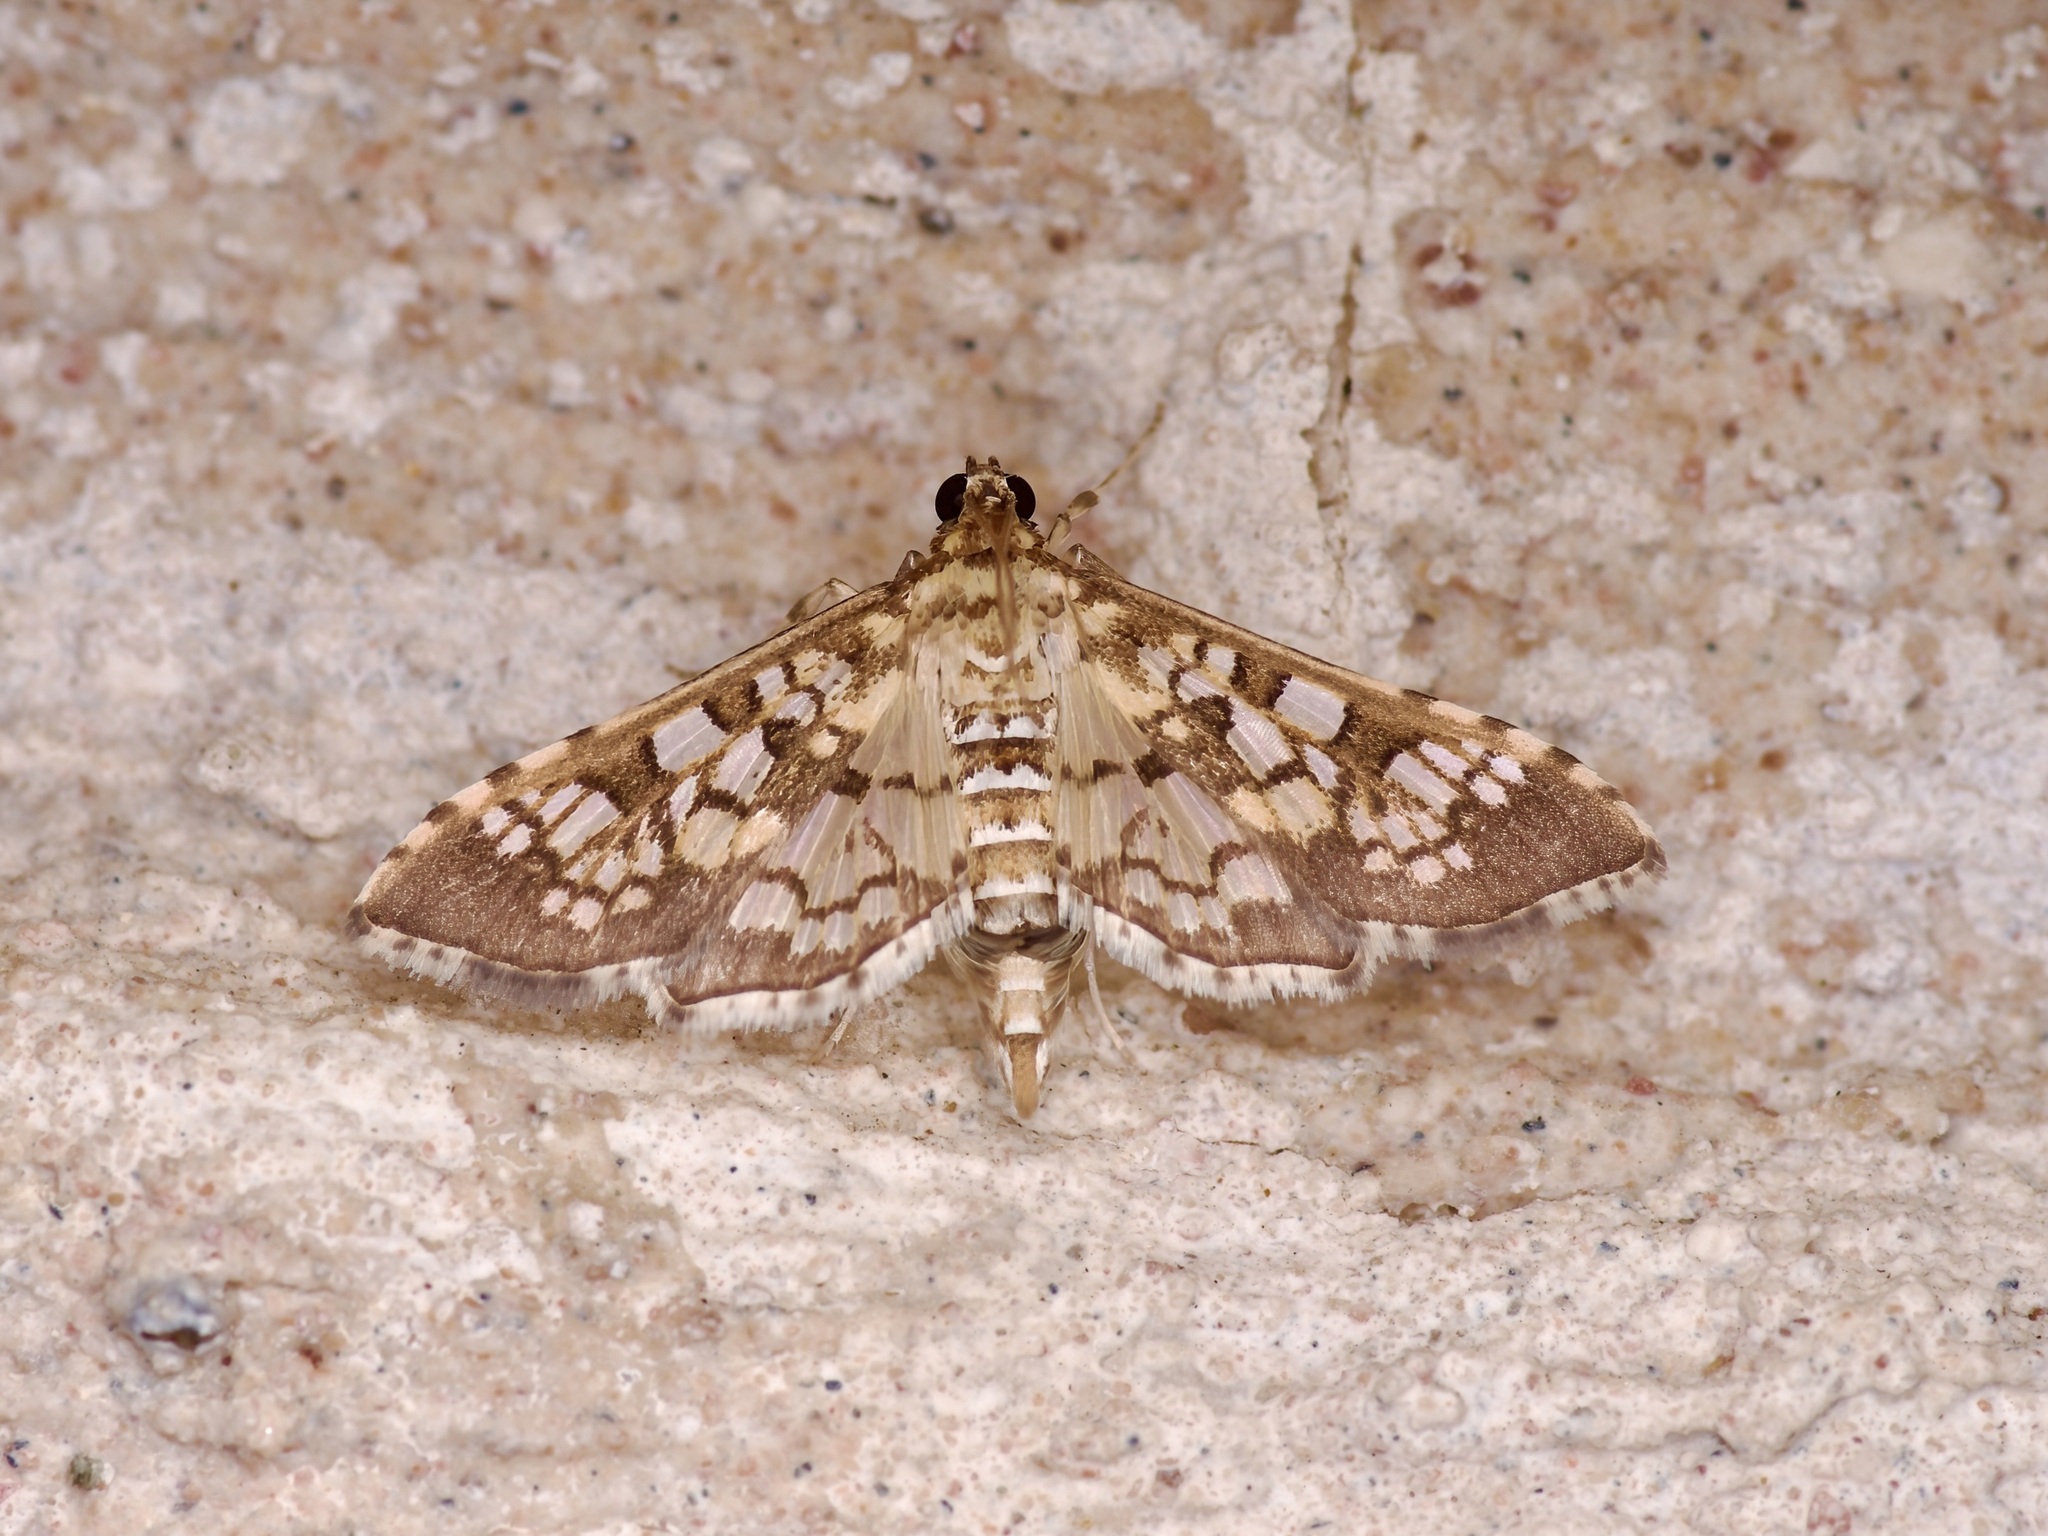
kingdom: Animalia
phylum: Arthropoda
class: Insecta
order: Lepidoptera
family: Crambidae
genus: Samea
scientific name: Samea ecclesialis
